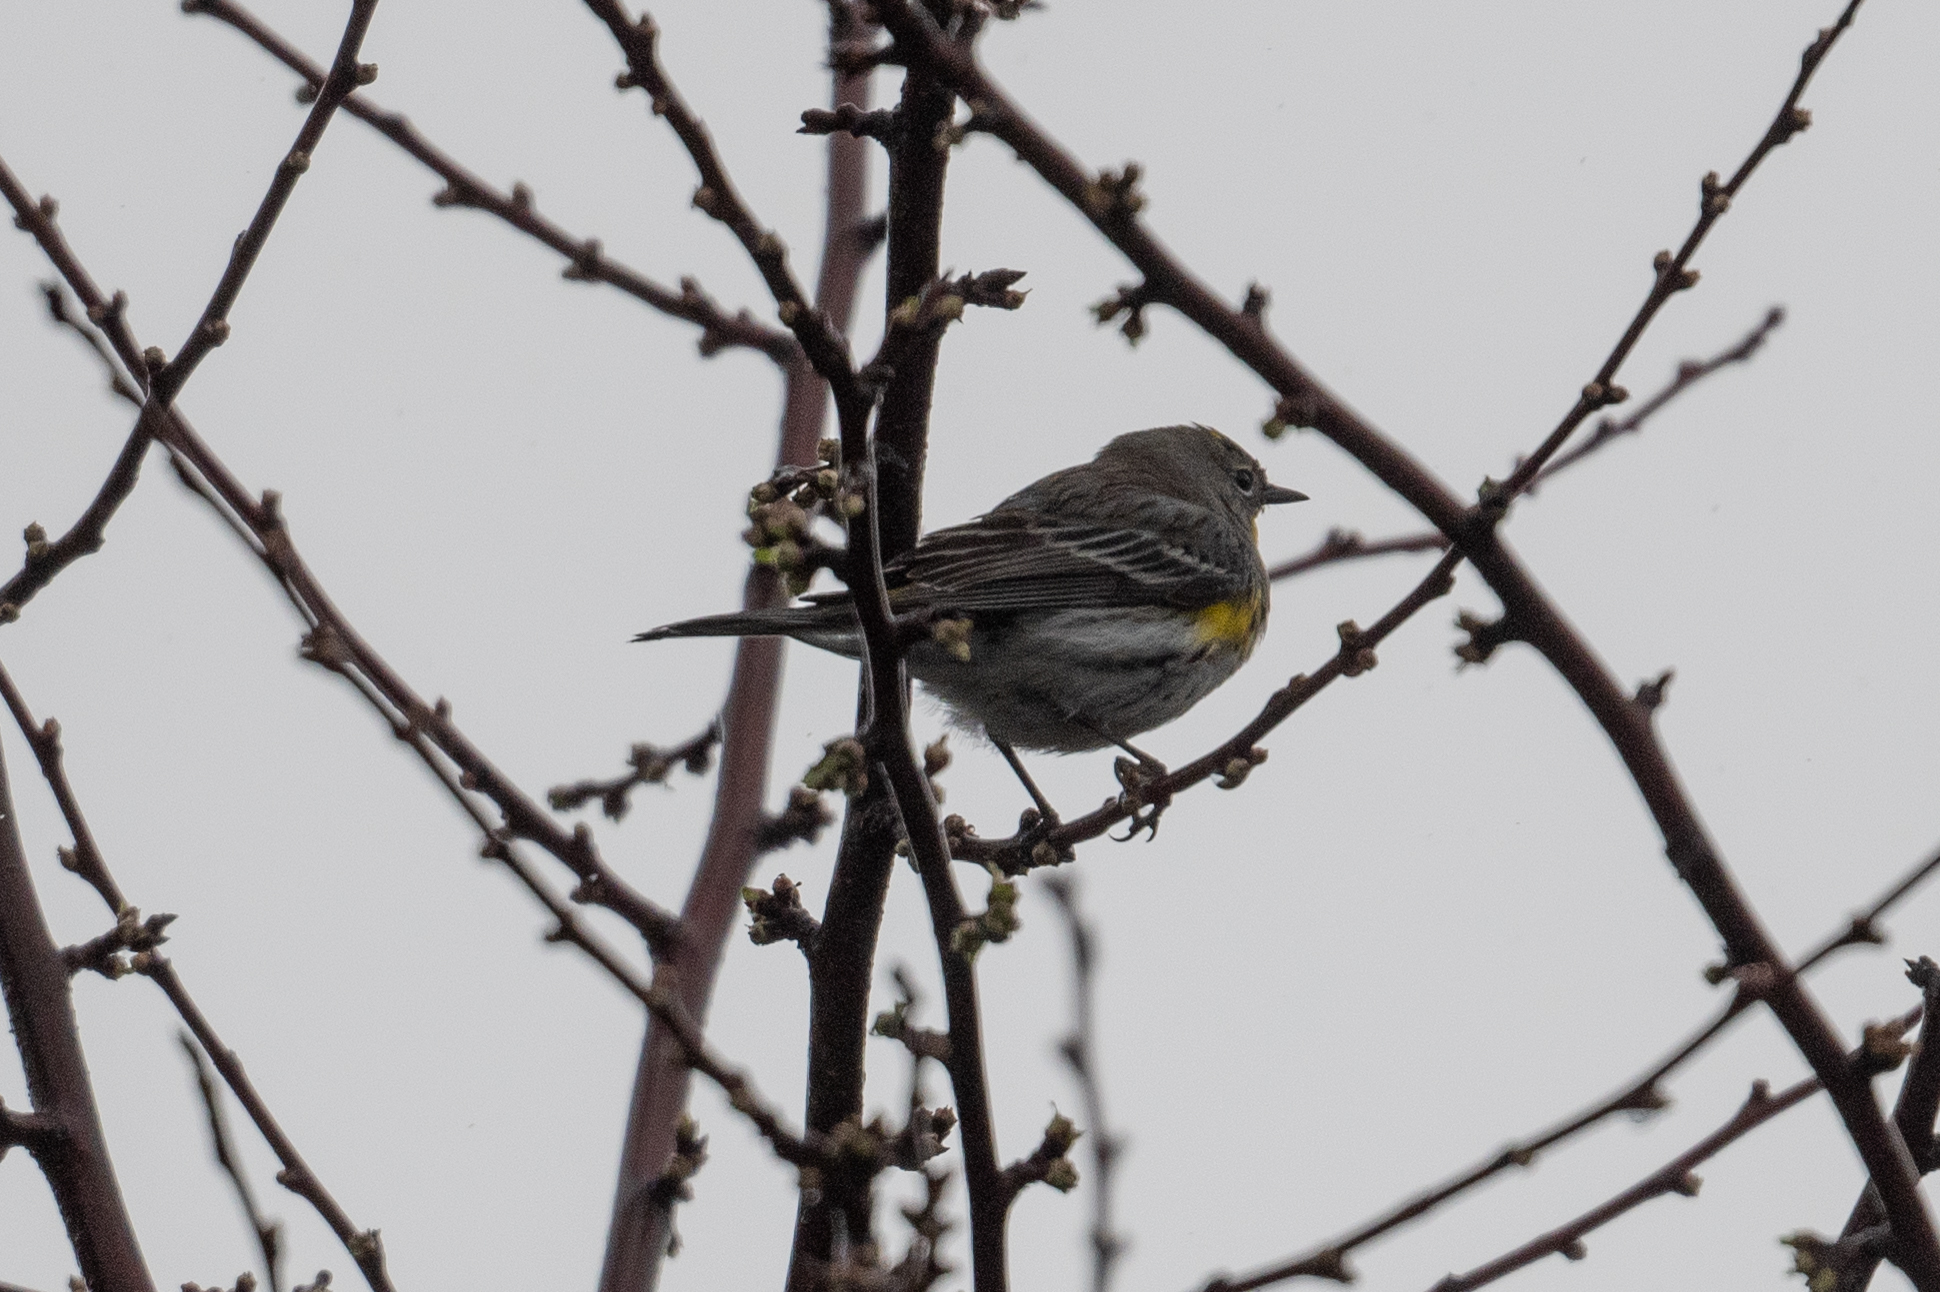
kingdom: Animalia
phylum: Chordata
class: Aves
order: Passeriformes
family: Parulidae
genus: Setophaga
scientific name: Setophaga coronata
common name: Myrtle warbler
